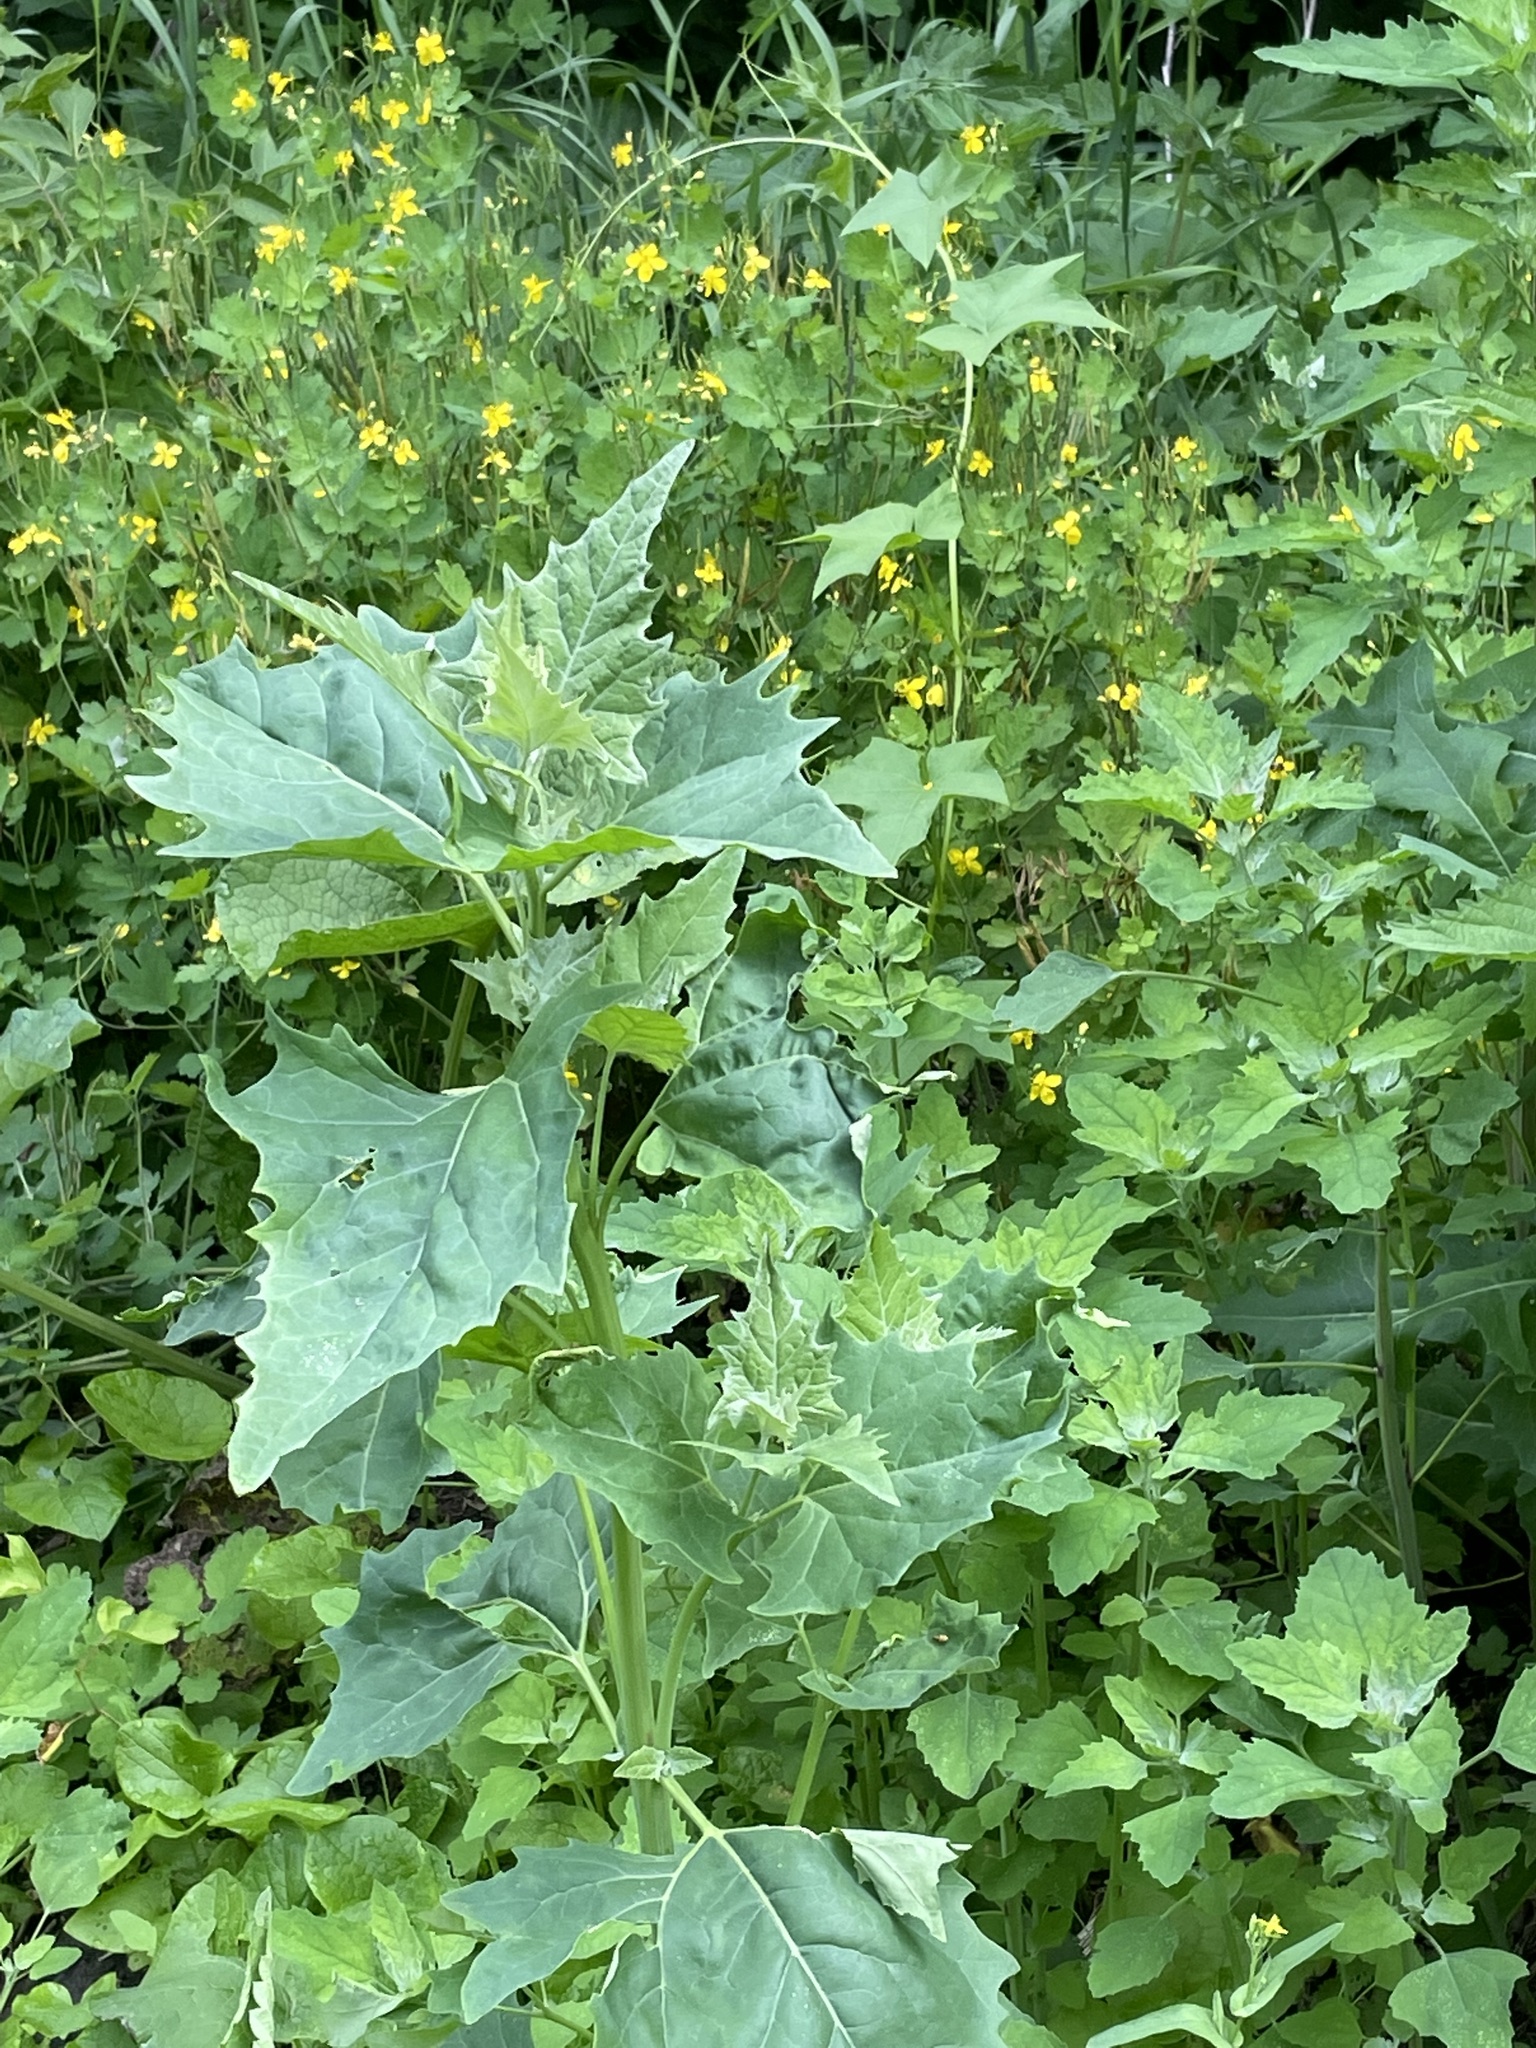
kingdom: Plantae
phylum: Tracheophyta
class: Magnoliopsida
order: Caryophyllales
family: Amaranthaceae
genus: Atriplex
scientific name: Atriplex sagittata
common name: Purple orache
